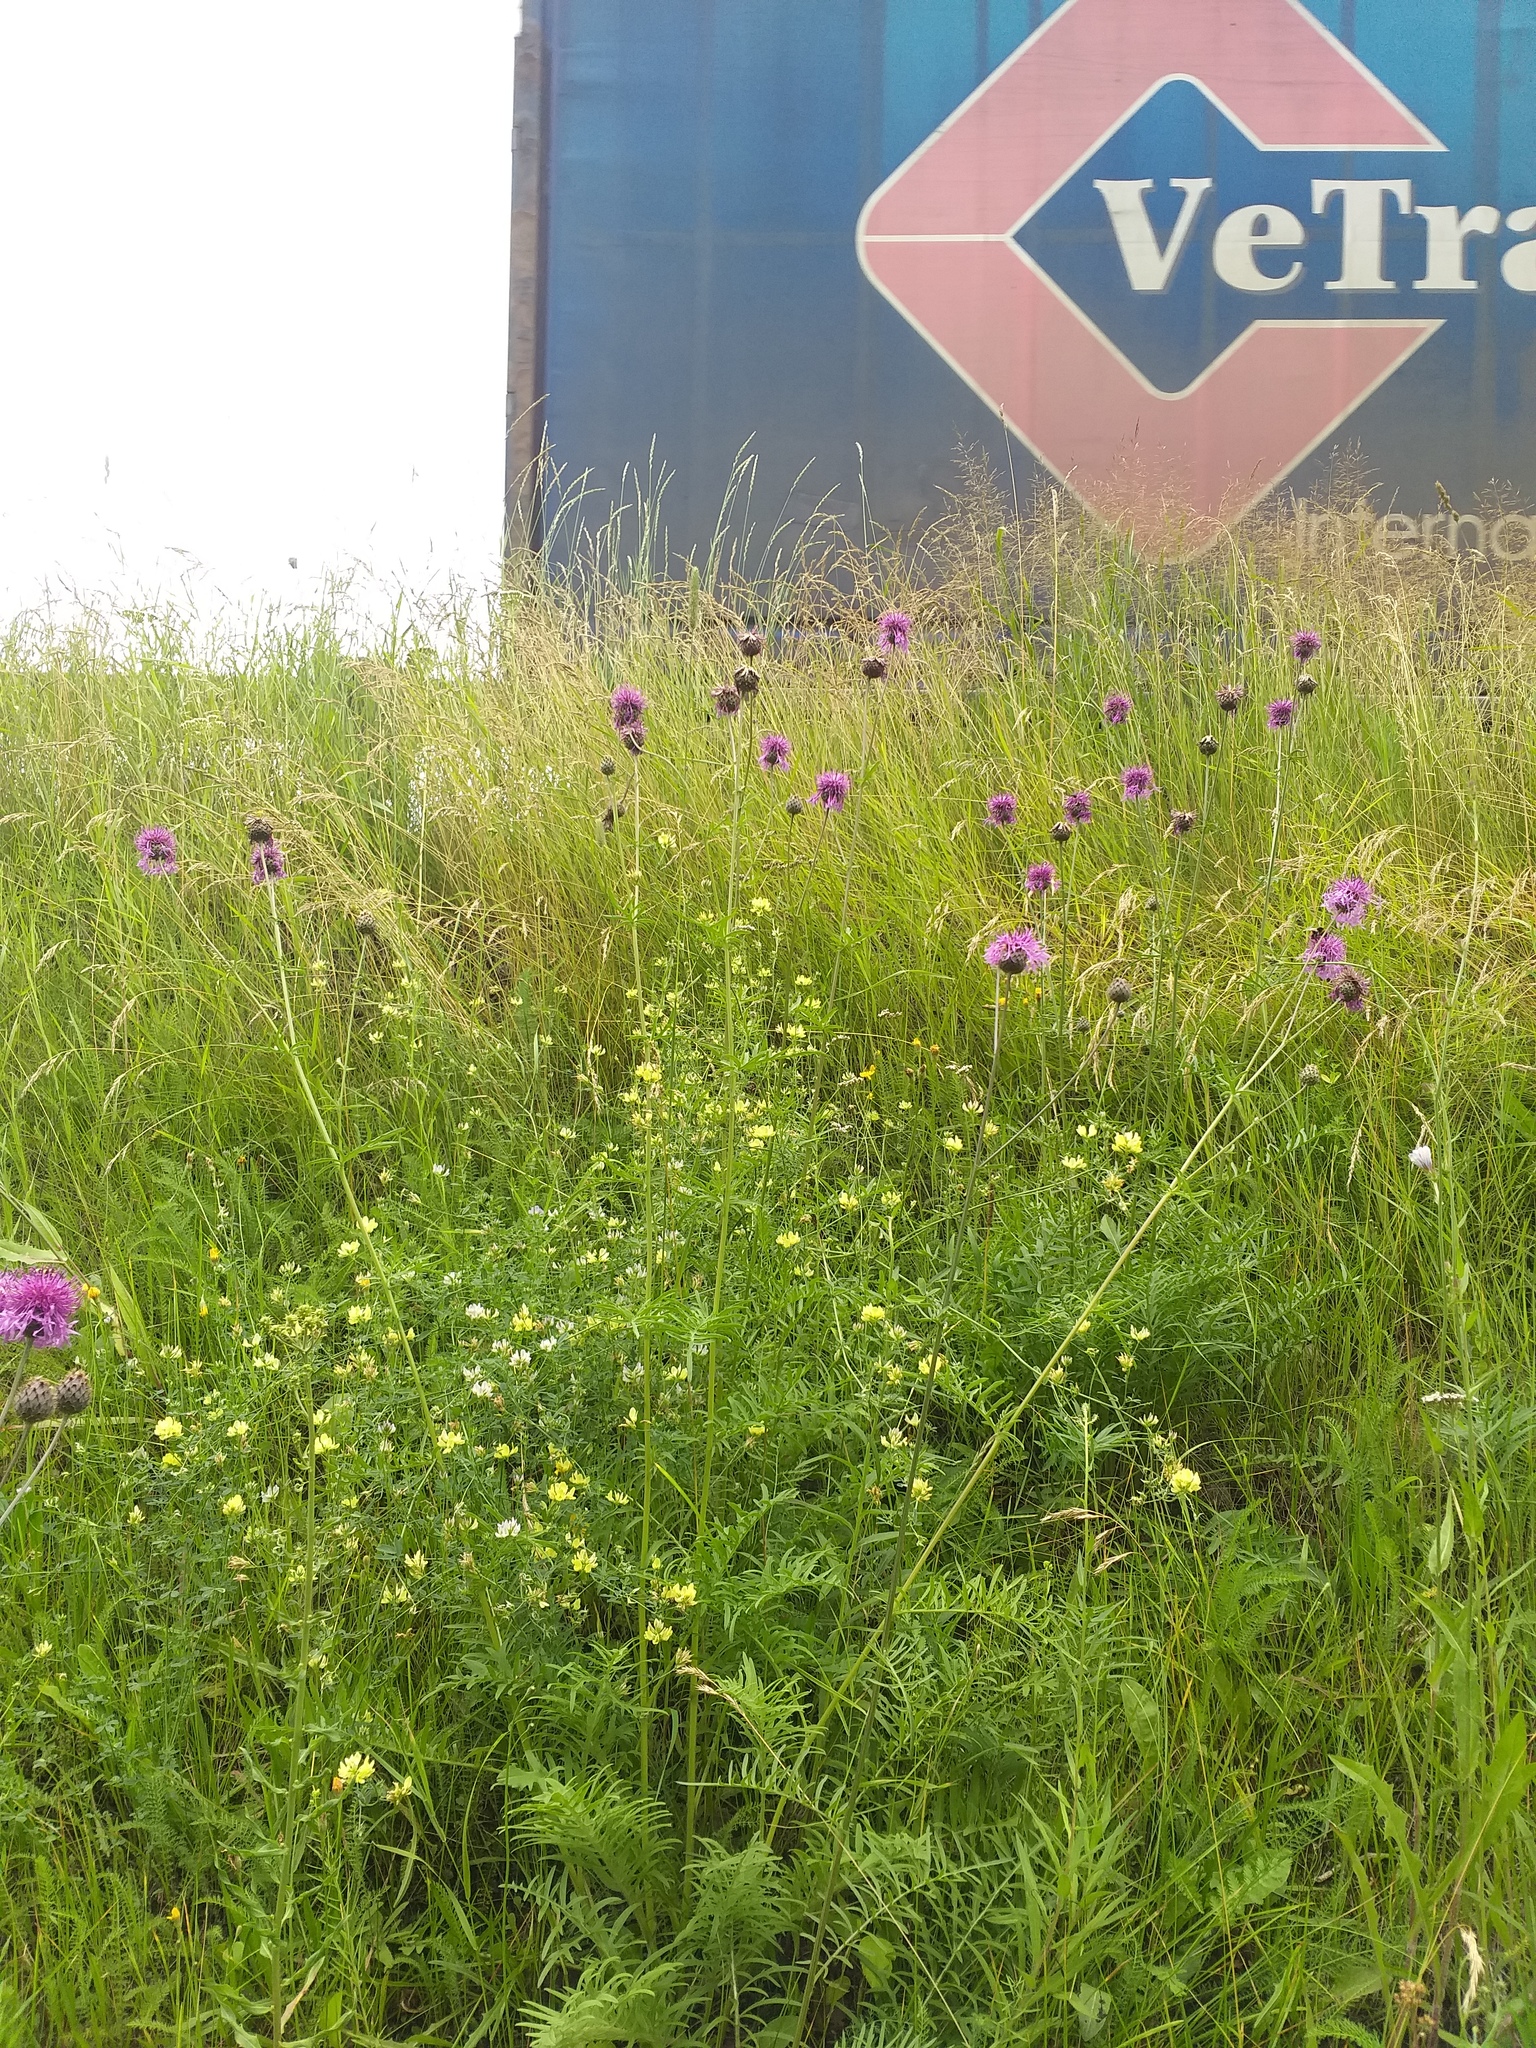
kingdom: Plantae
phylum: Tracheophyta
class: Magnoliopsida
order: Asterales
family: Asteraceae
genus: Centaurea
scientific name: Centaurea scabiosa
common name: Greater knapweed
